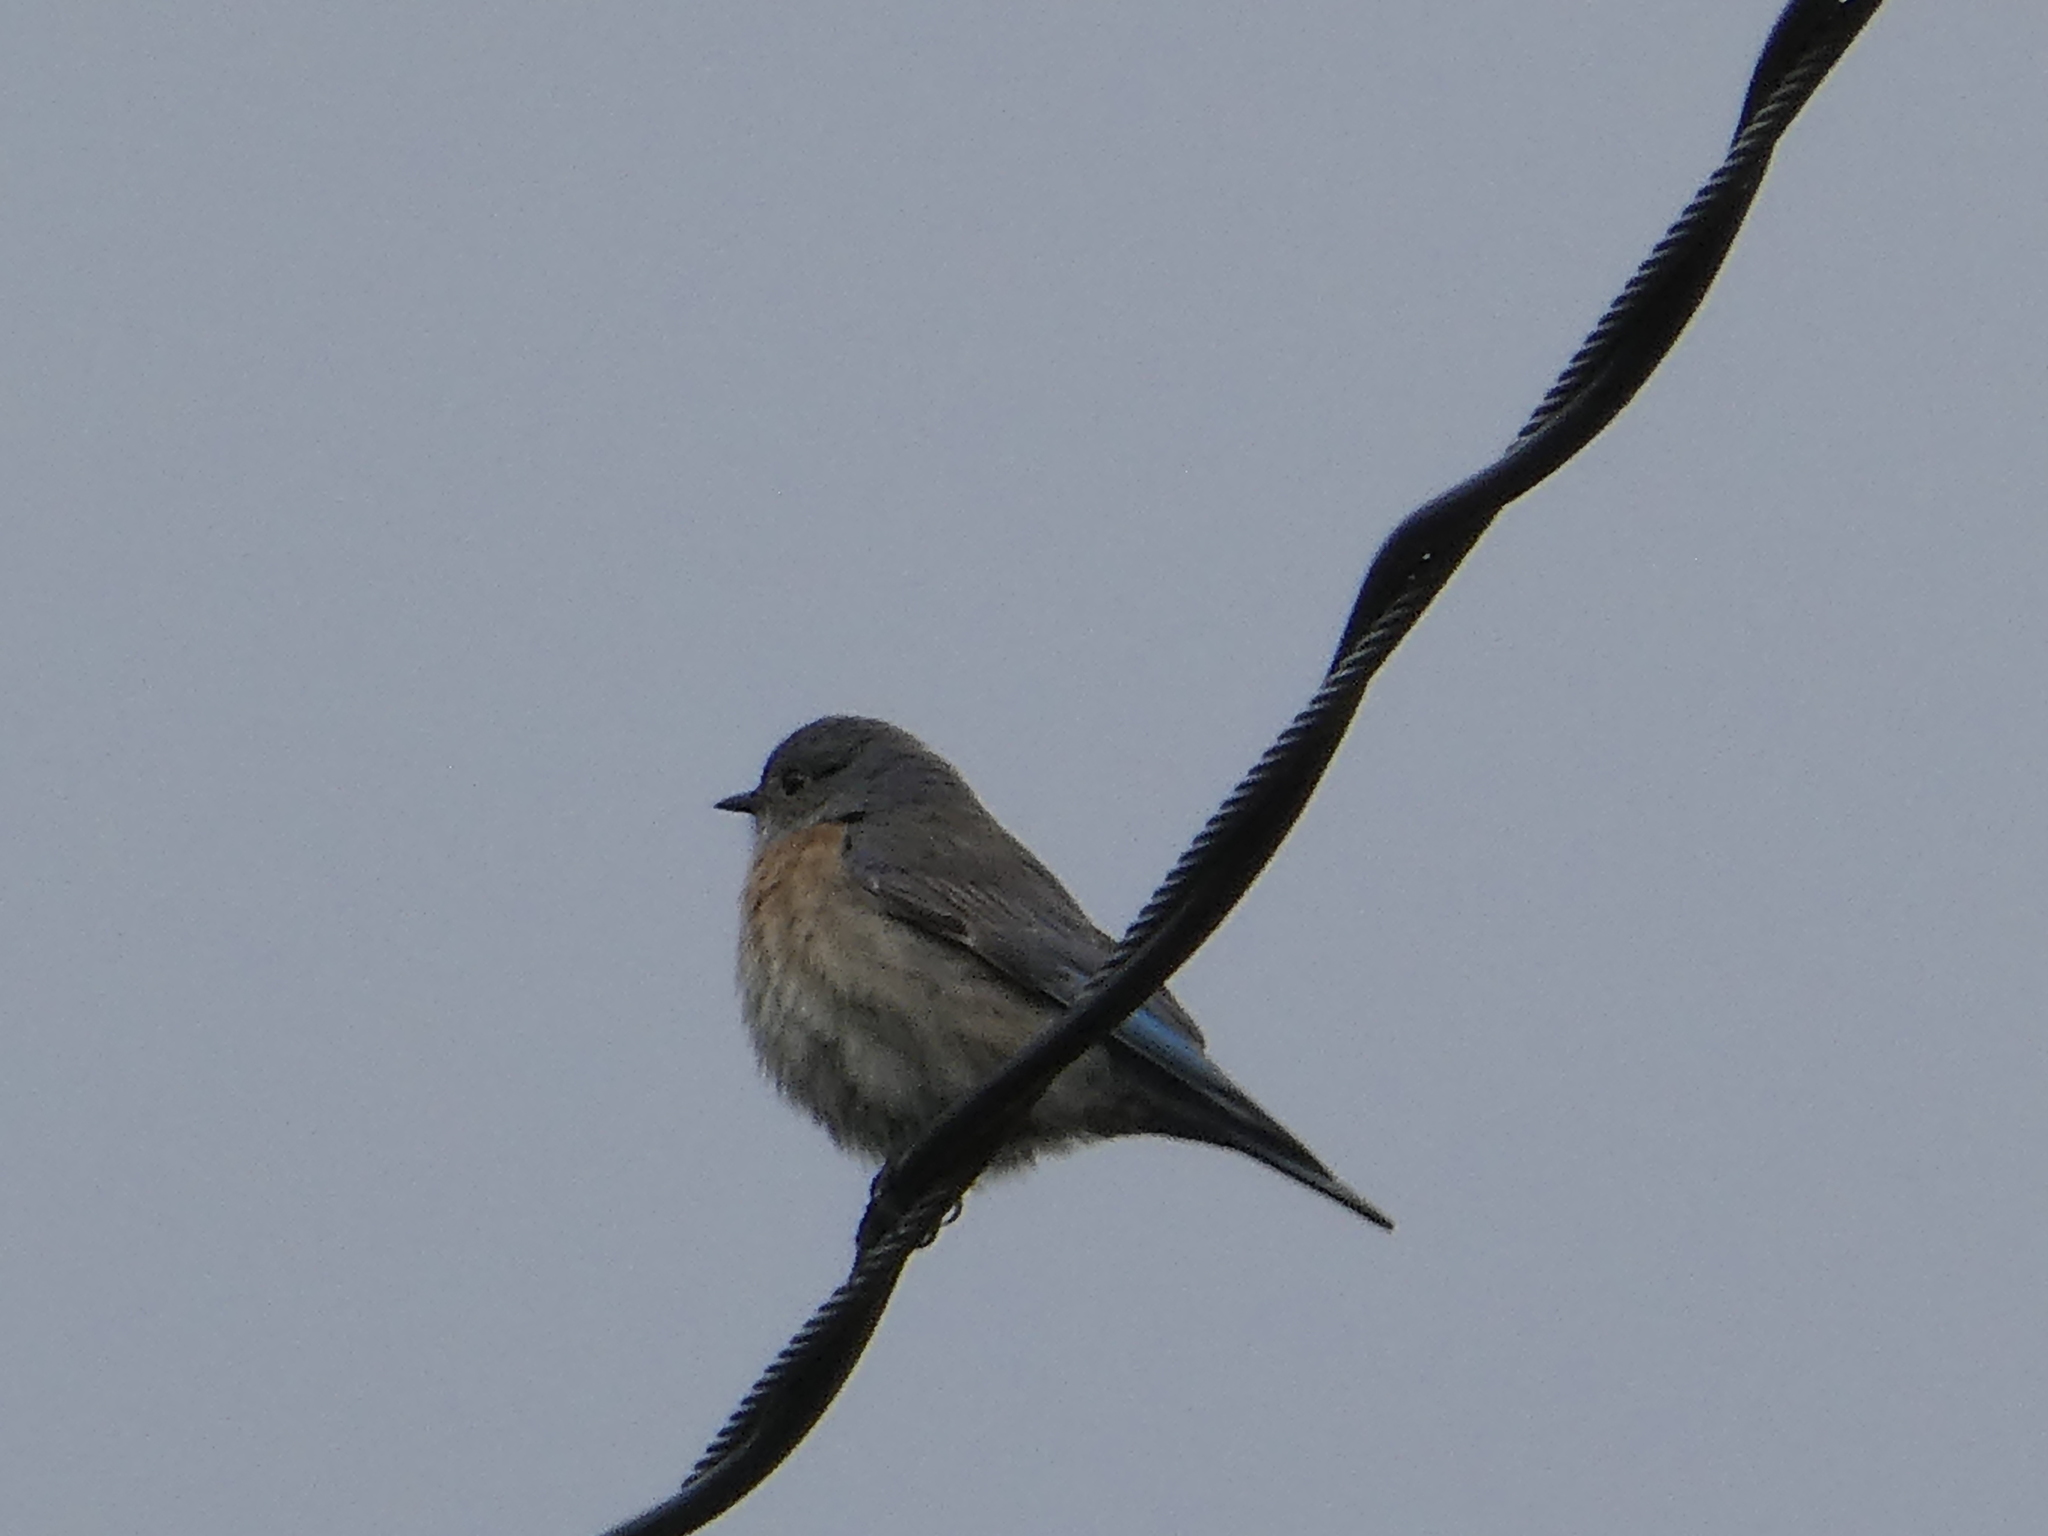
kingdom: Animalia
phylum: Chordata
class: Aves
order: Passeriformes
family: Turdidae
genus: Sialia
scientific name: Sialia mexicana
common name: Western bluebird
